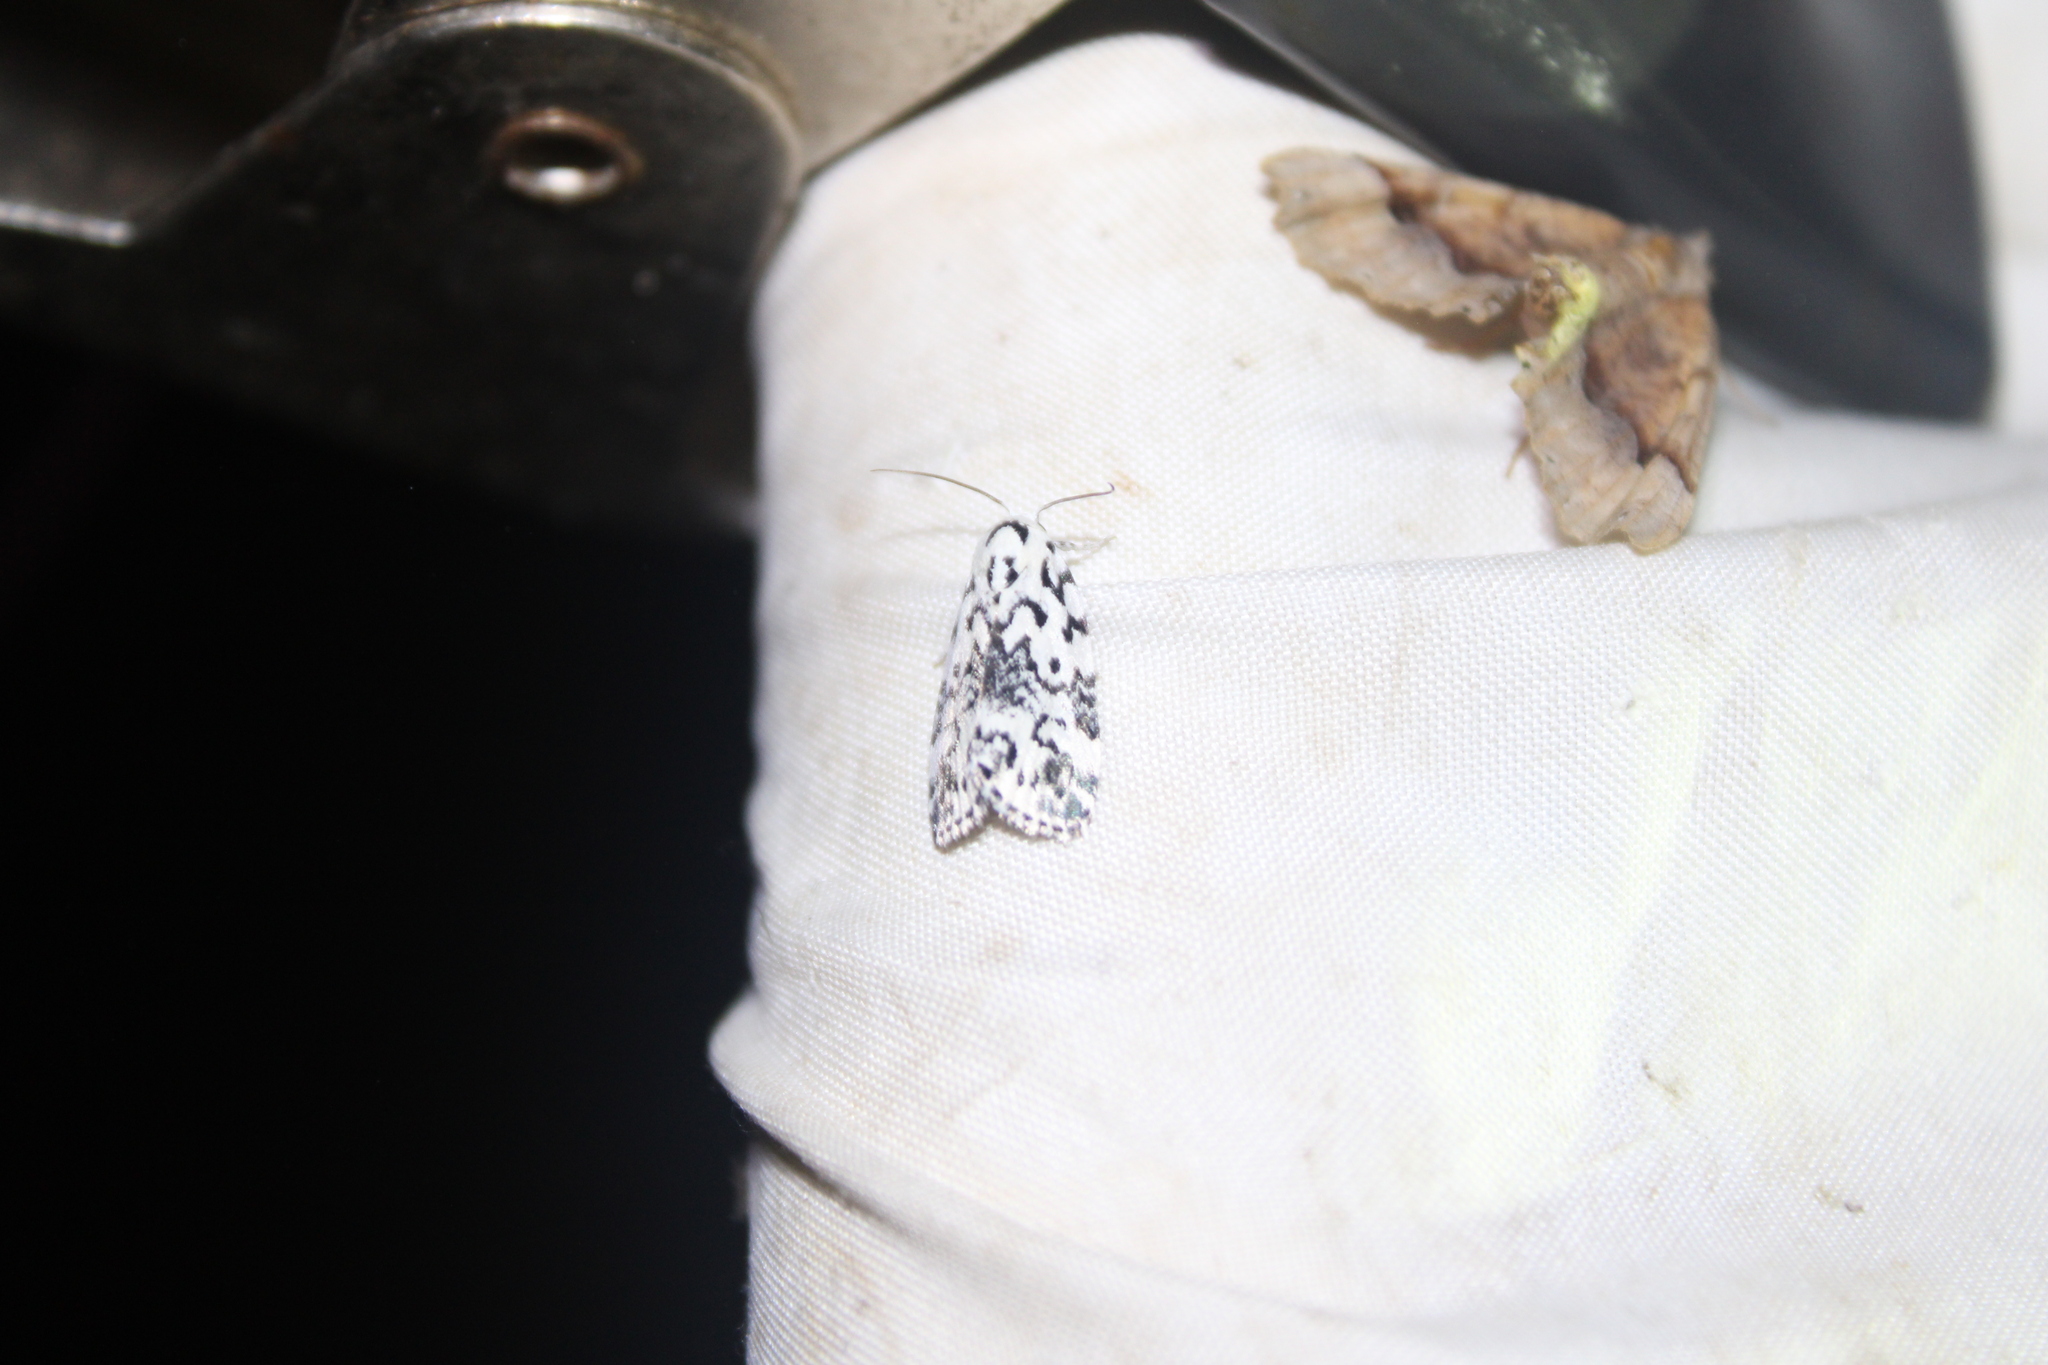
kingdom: Animalia
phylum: Arthropoda
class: Insecta
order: Lepidoptera
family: Noctuidae
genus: Polygrammate
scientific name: Polygrammate hebraeicum
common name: Hebrew moth
